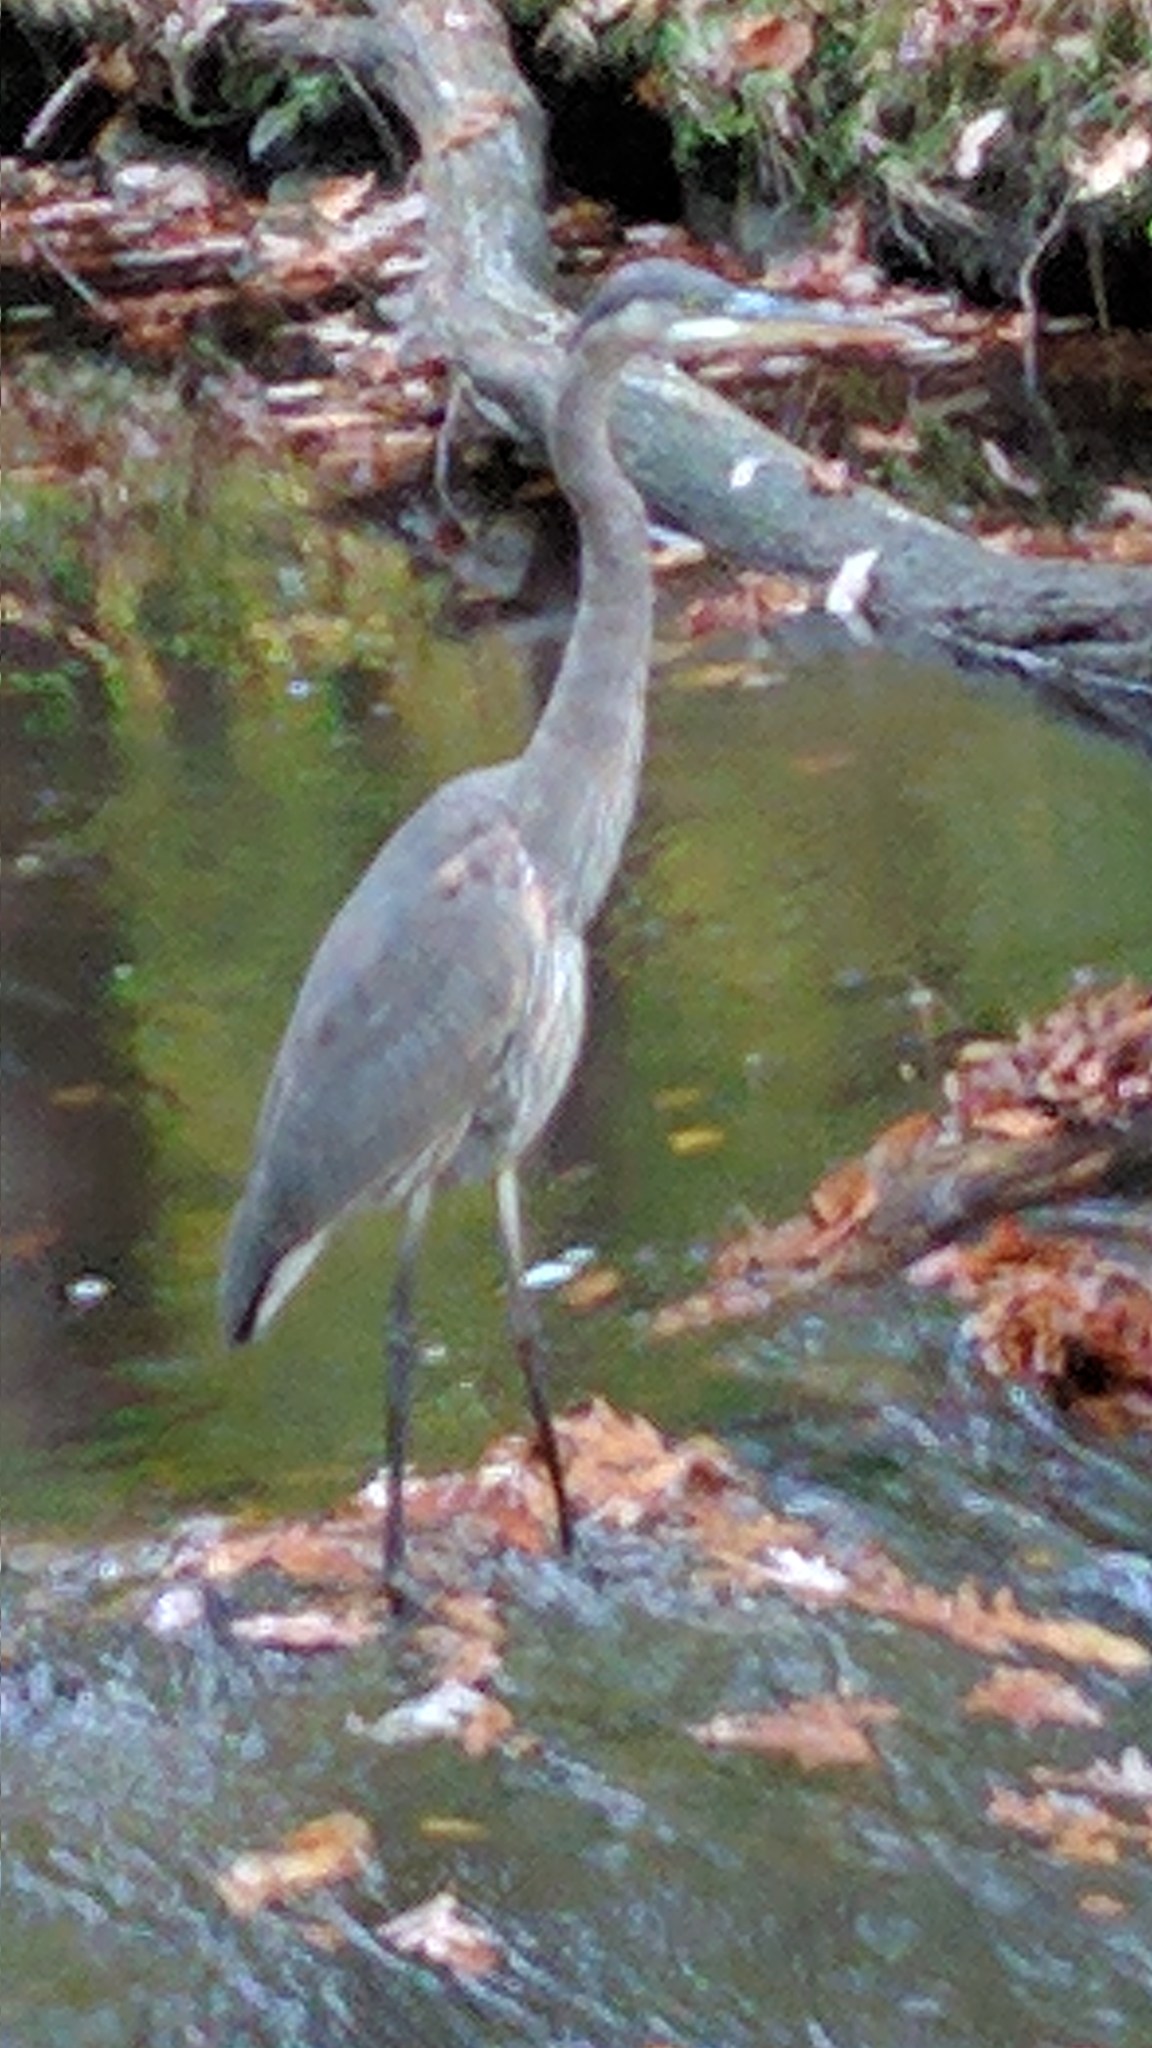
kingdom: Animalia
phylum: Chordata
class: Aves
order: Pelecaniformes
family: Ardeidae
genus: Ardea
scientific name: Ardea herodias
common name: Great blue heron
